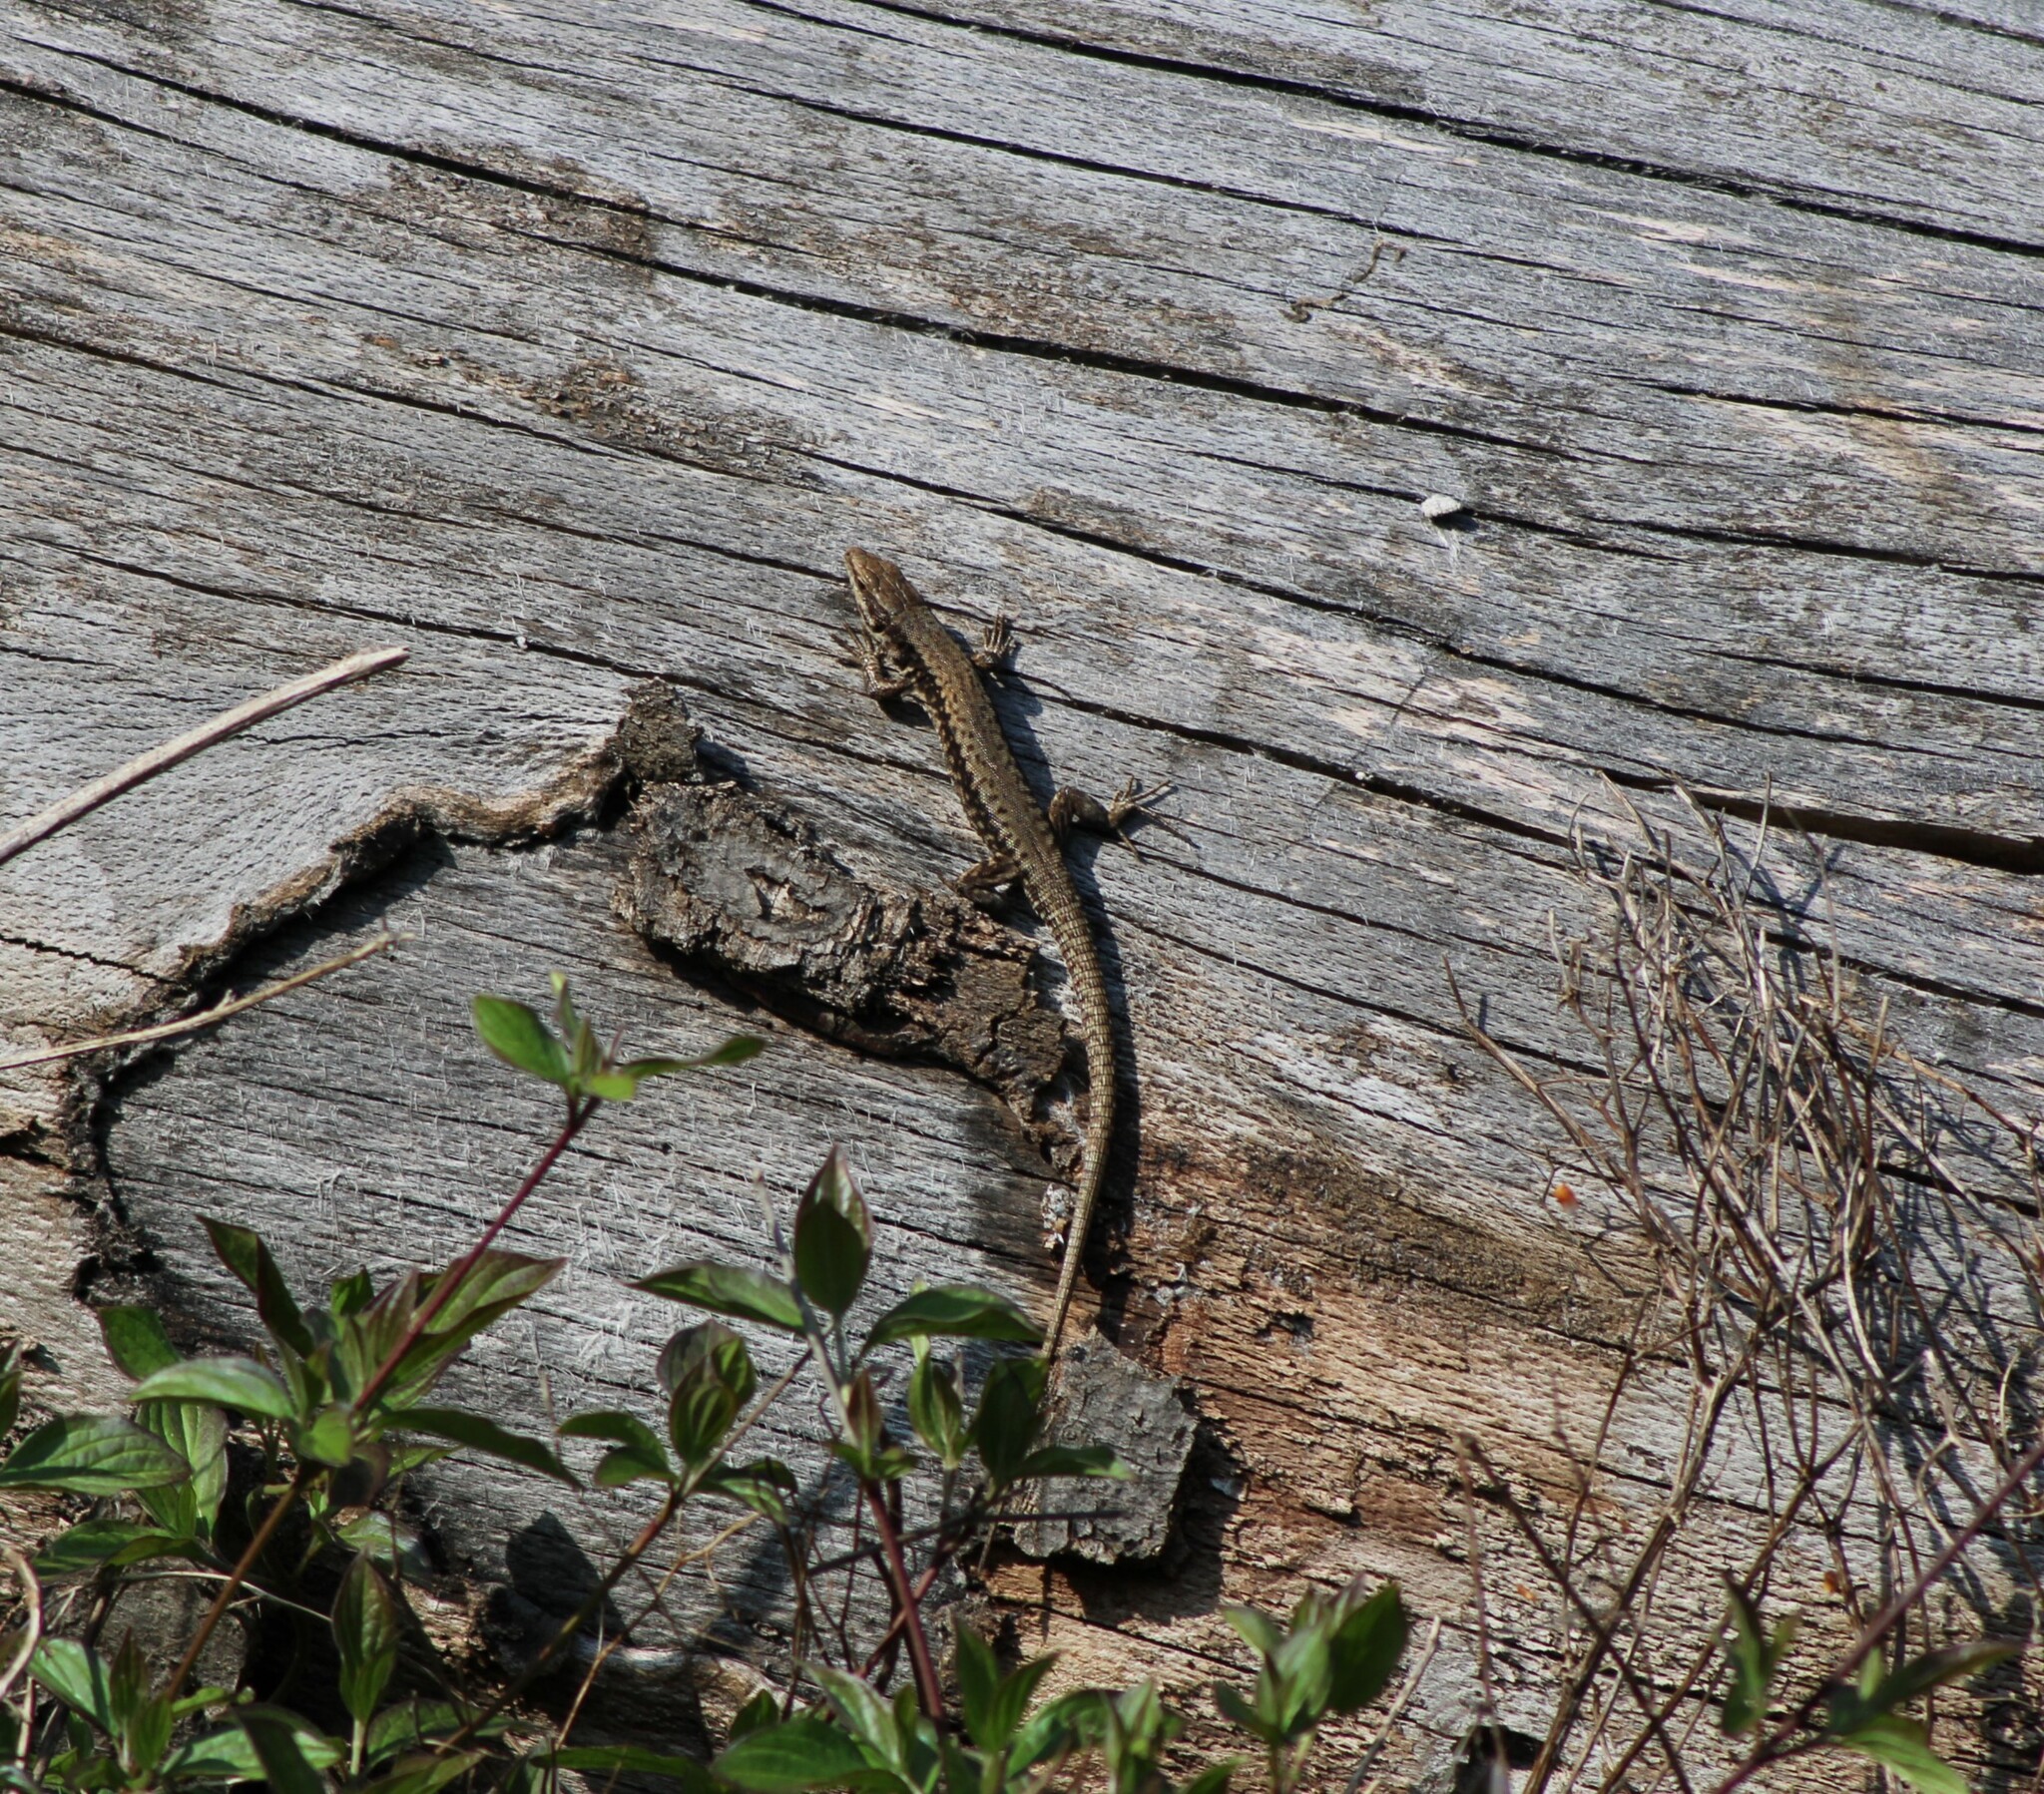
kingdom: Animalia
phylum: Chordata
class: Squamata
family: Lacertidae
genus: Podarcis
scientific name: Podarcis muralis
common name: Common wall lizard
